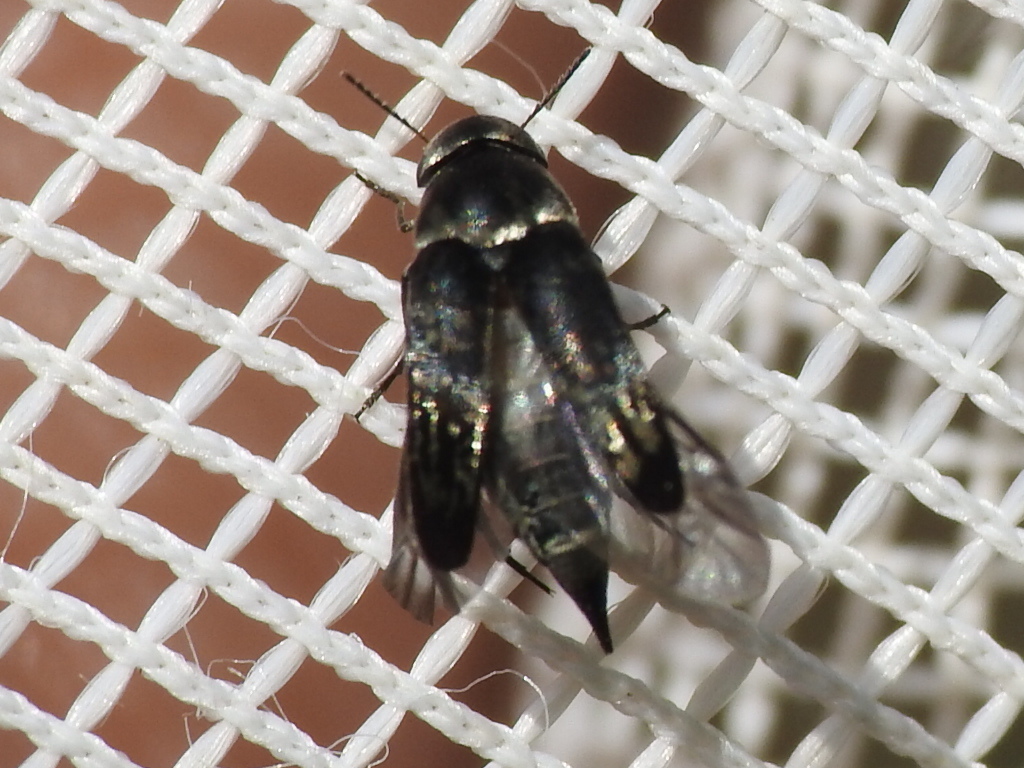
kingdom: Animalia
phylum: Arthropoda
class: Insecta
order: Coleoptera
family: Mordellidae
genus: Mordella
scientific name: Mordella marginata
